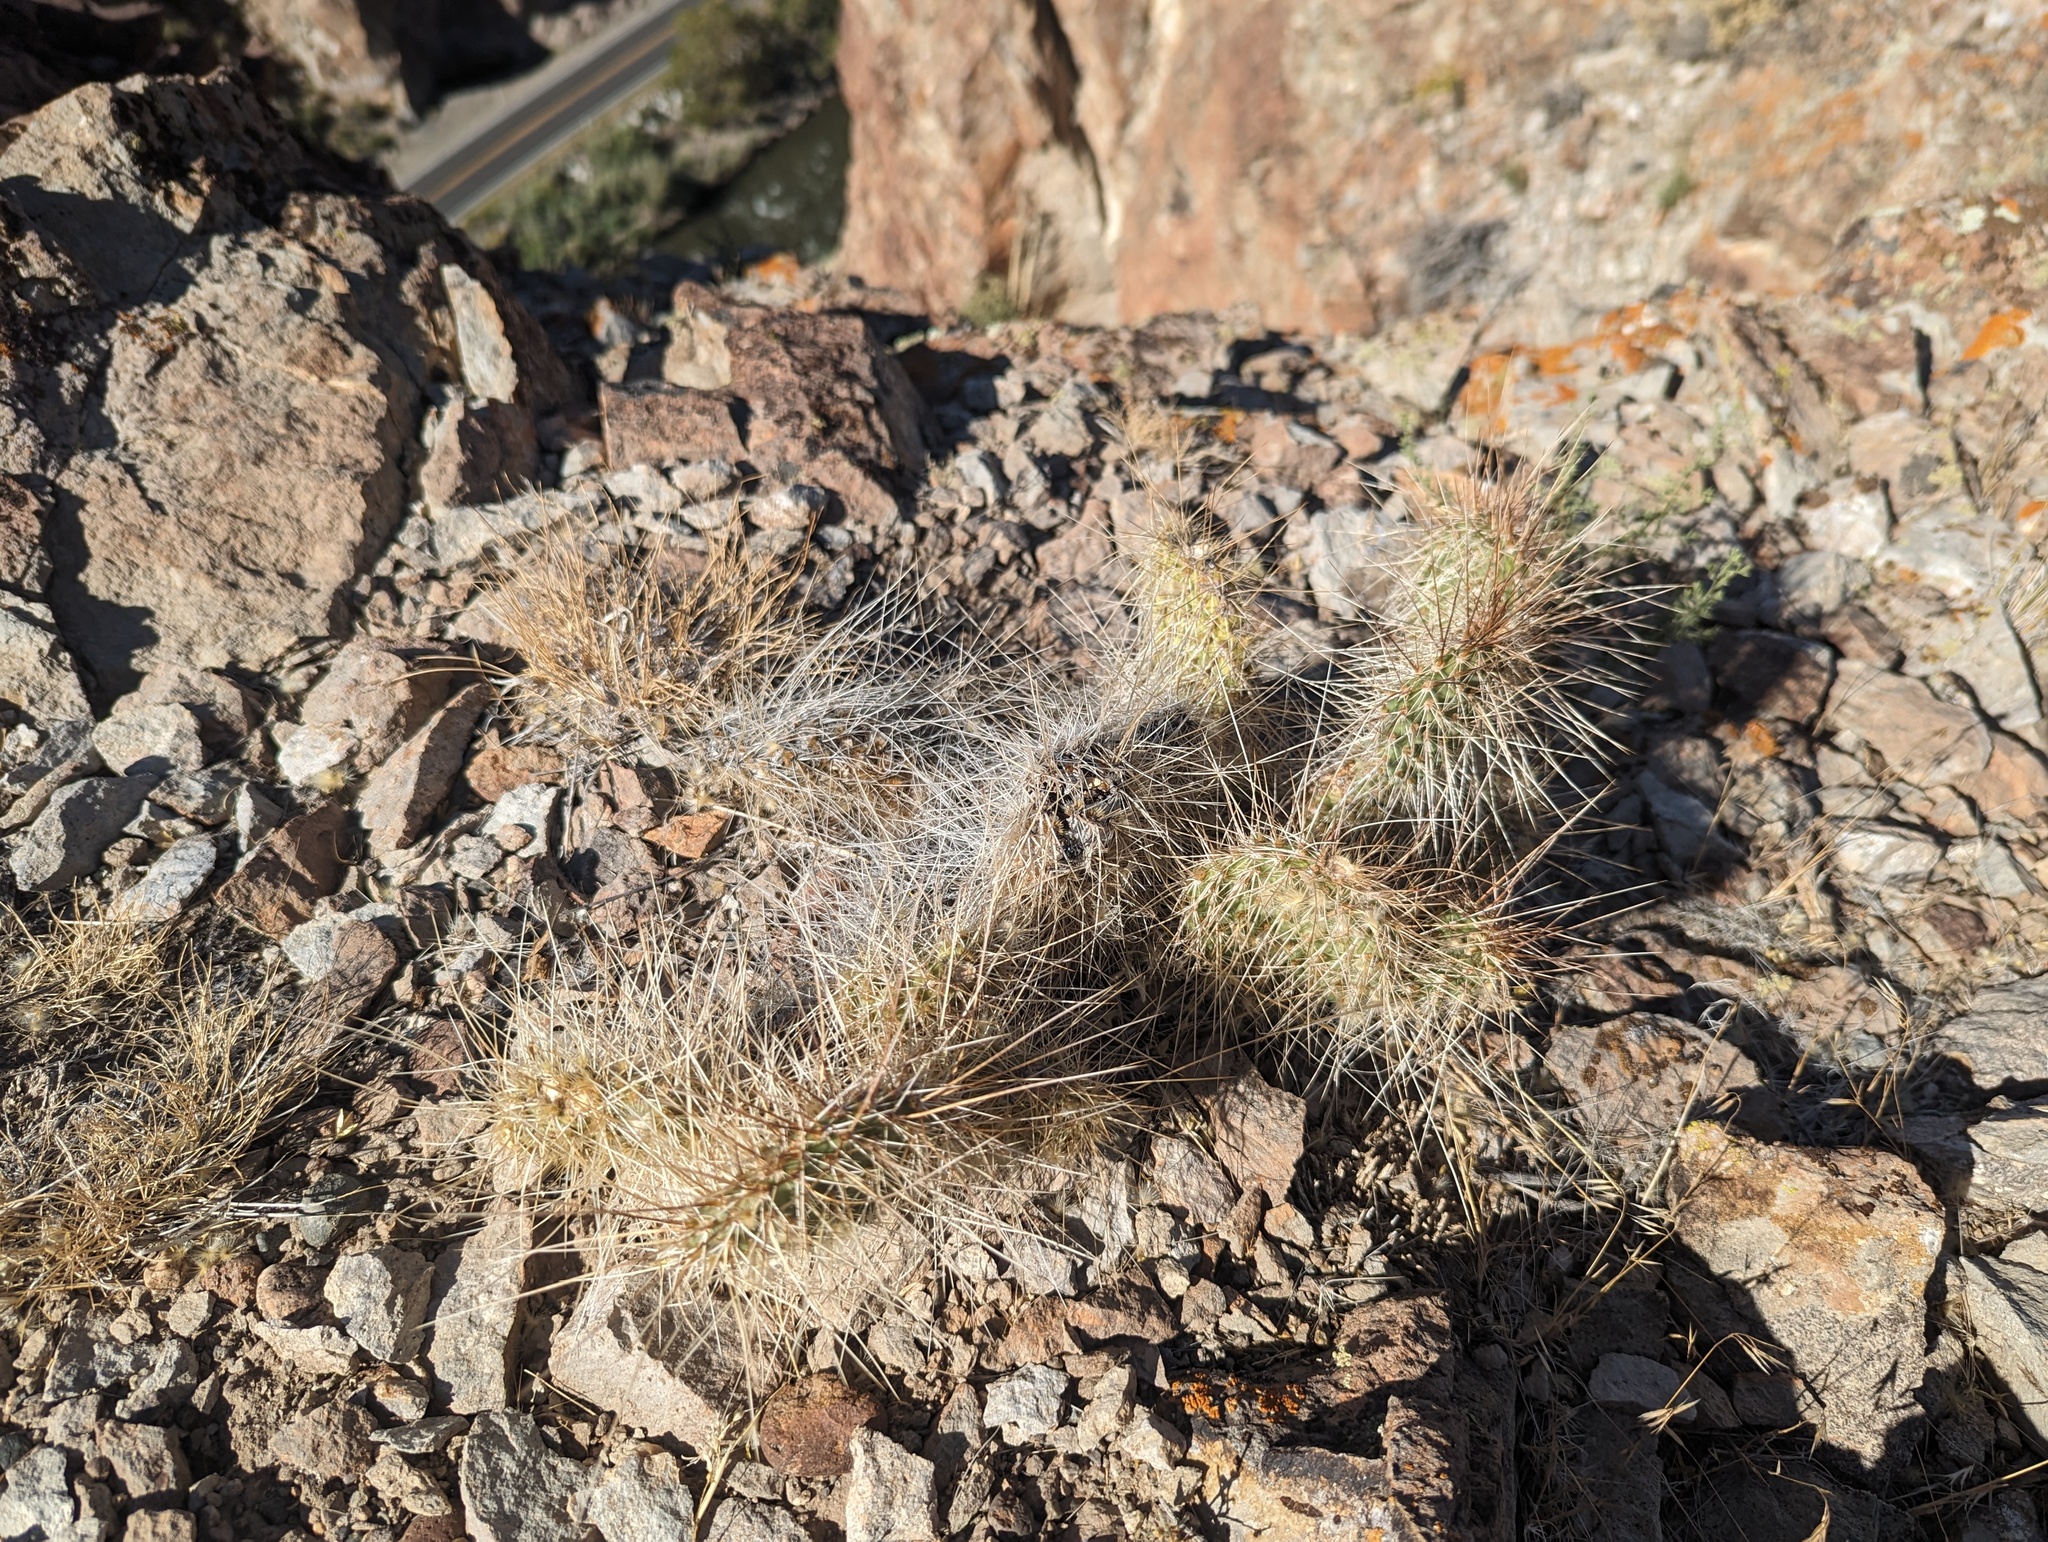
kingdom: Plantae
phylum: Tracheophyta
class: Magnoliopsida
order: Caryophyllales
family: Cactaceae
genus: Opuntia
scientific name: Opuntia polyacantha
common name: Plains prickly-pear
